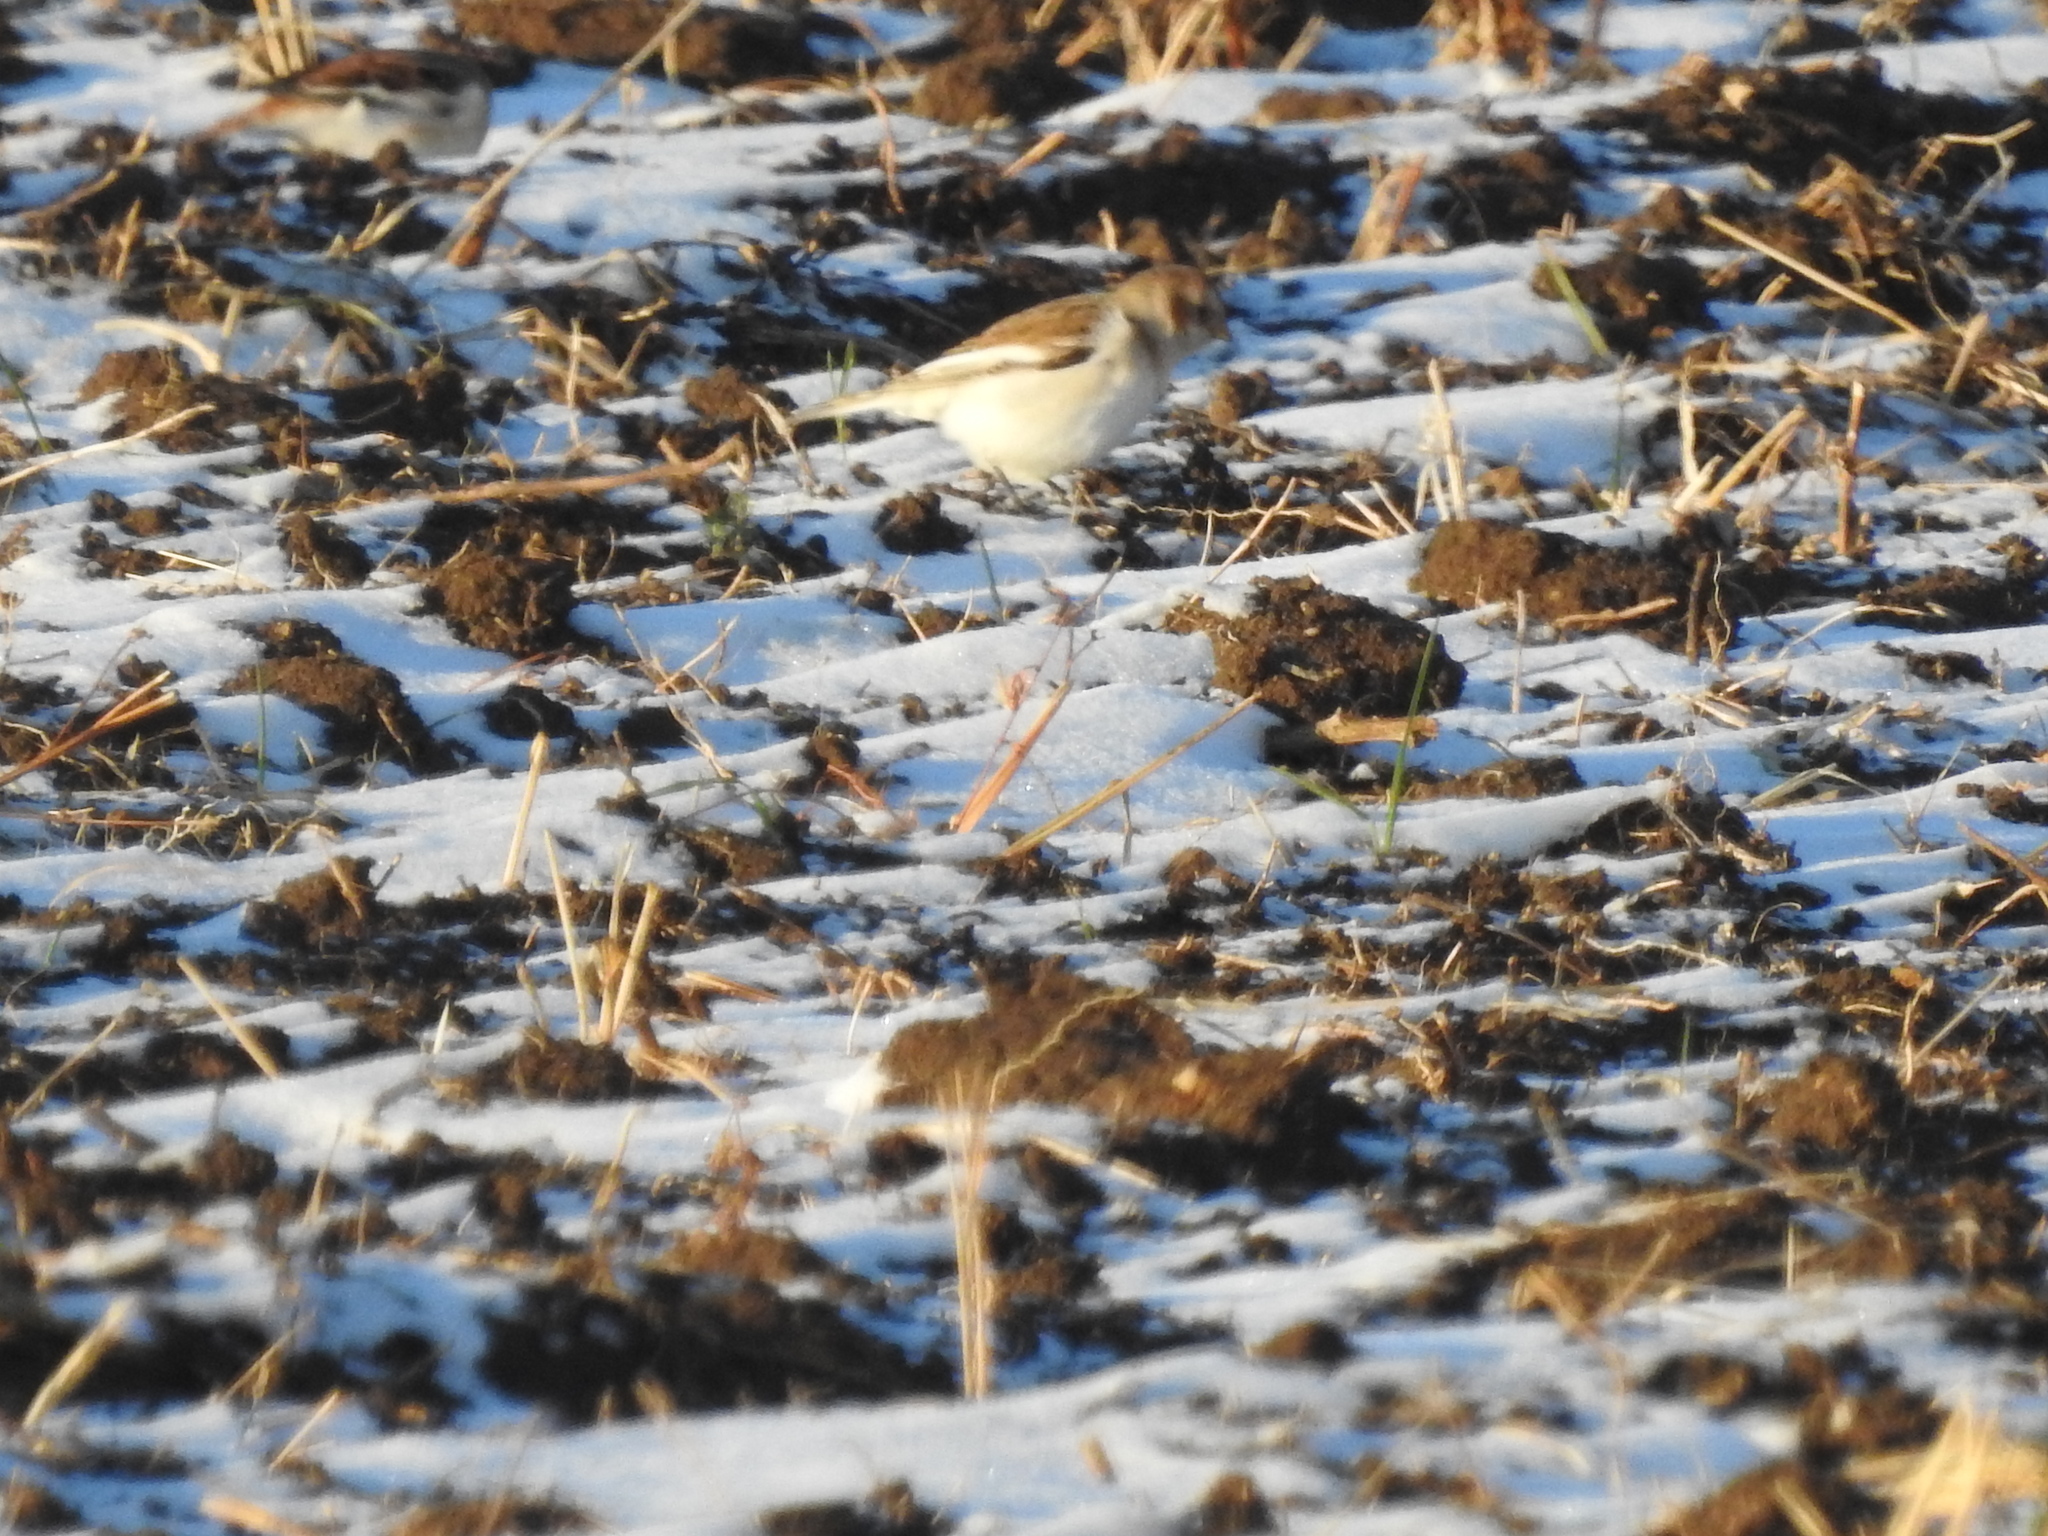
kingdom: Animalia
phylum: Chordata
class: Aves
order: Passeriformes
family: Calcariidae
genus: Plectrophenax
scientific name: Plectrophenax nivalis
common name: Snow bunting
